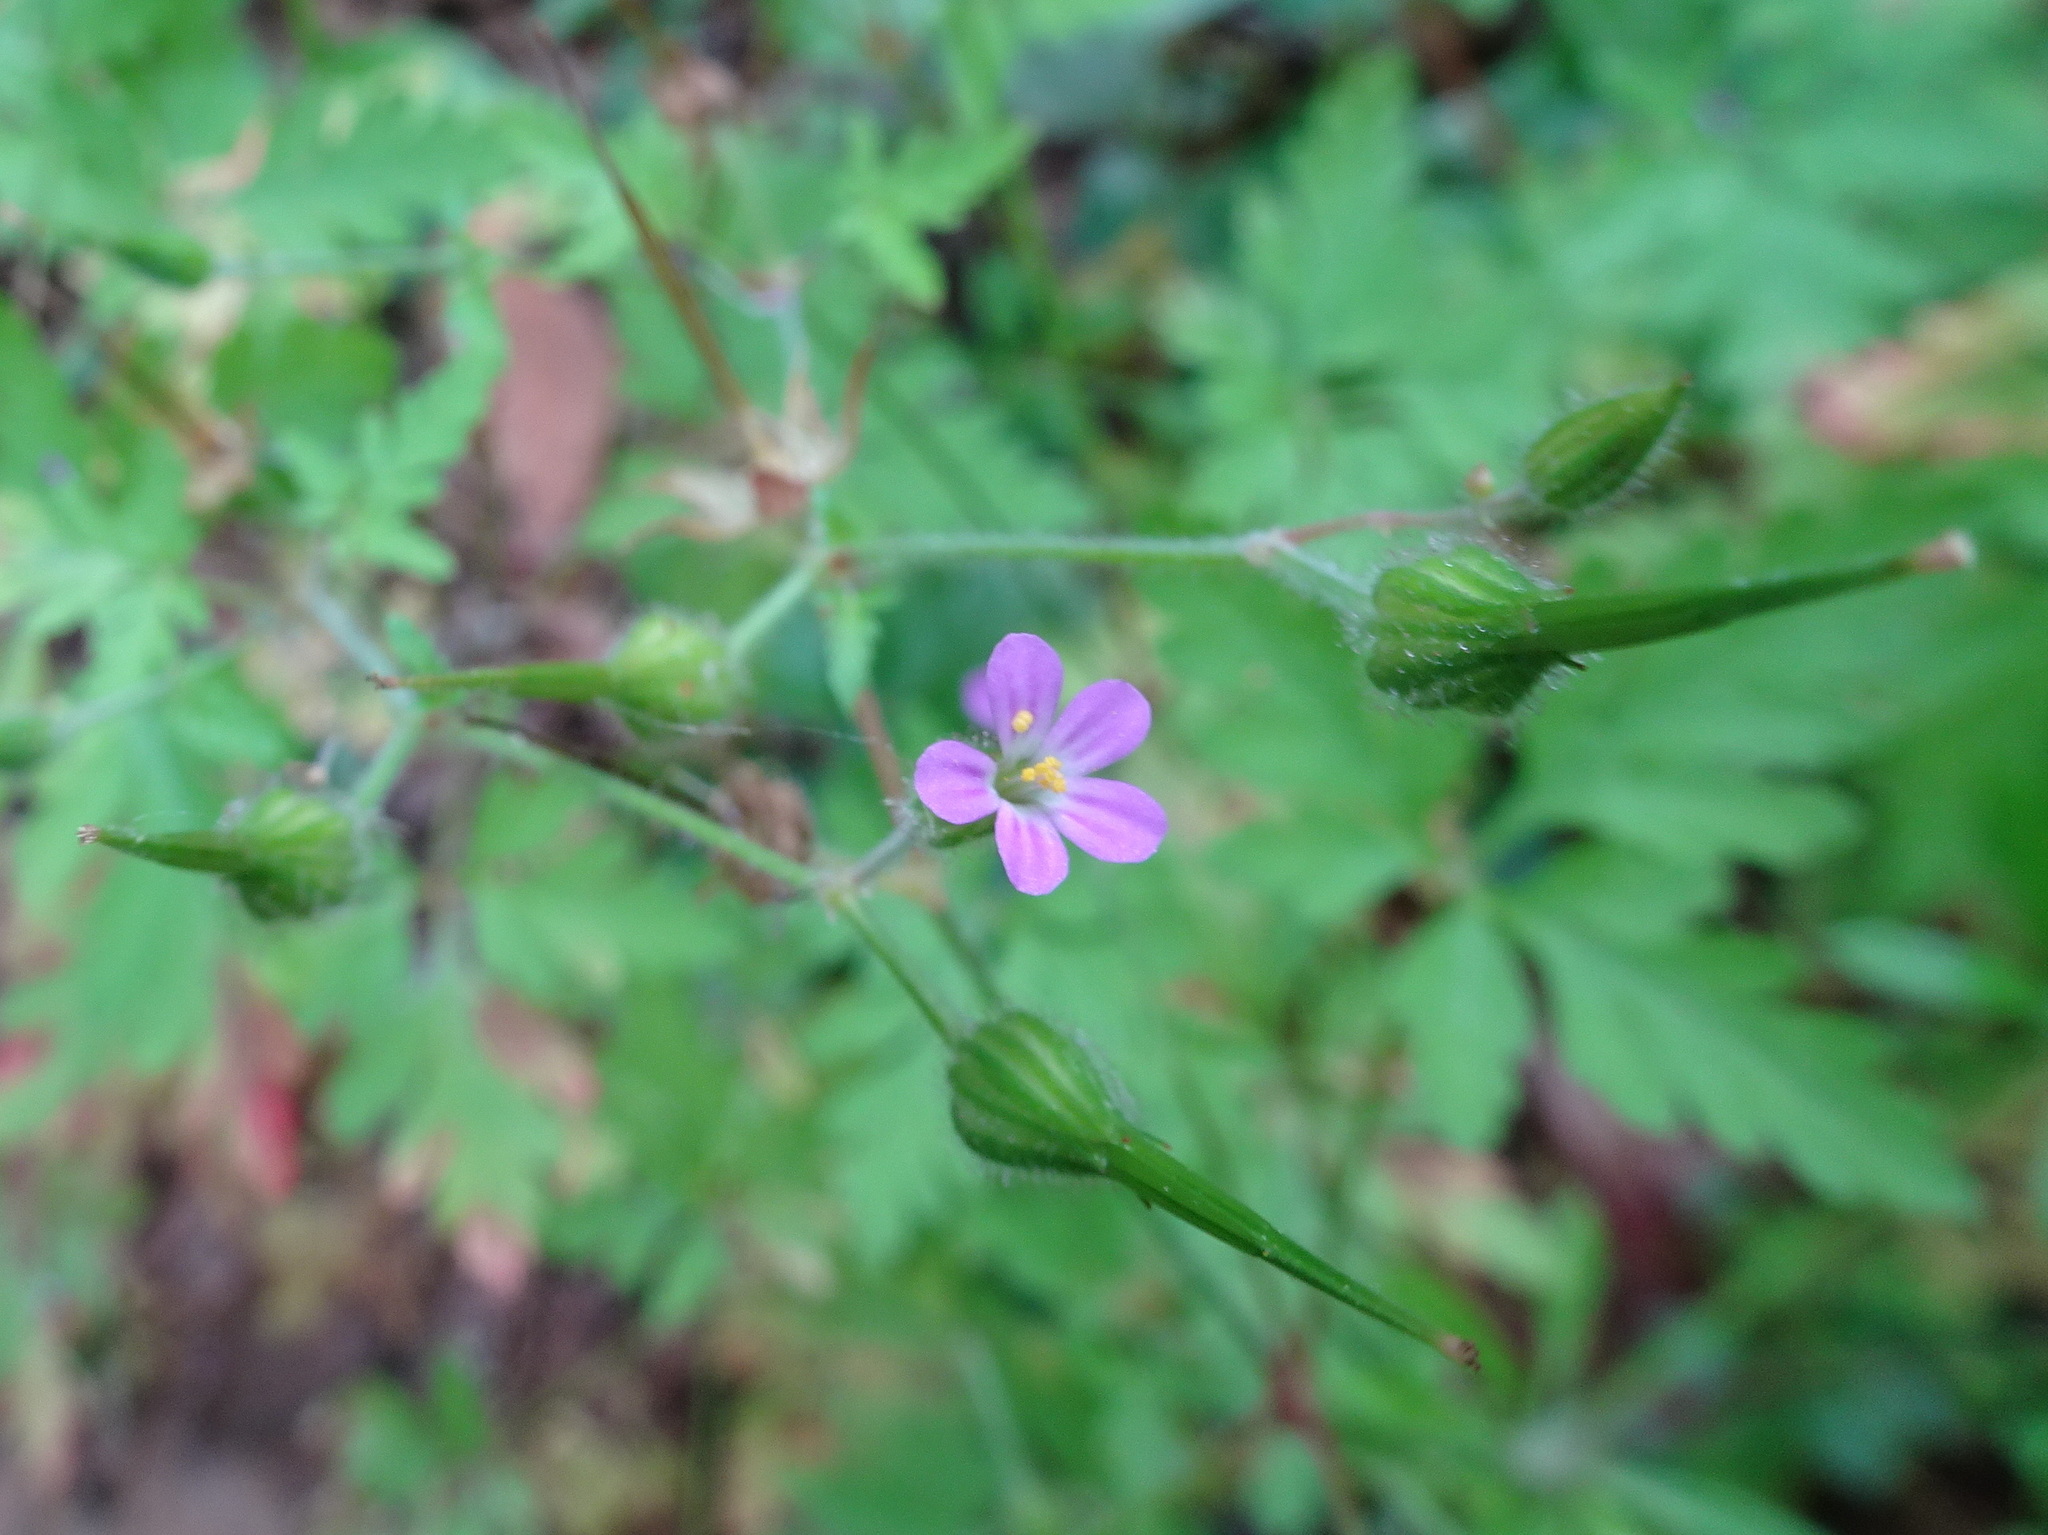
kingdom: Plantae
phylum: Tracheophyta
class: Magnoliopsida
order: Geraniales
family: Geraniaceae
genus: Geranium
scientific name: Geranium robertianum
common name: Herb-robert
